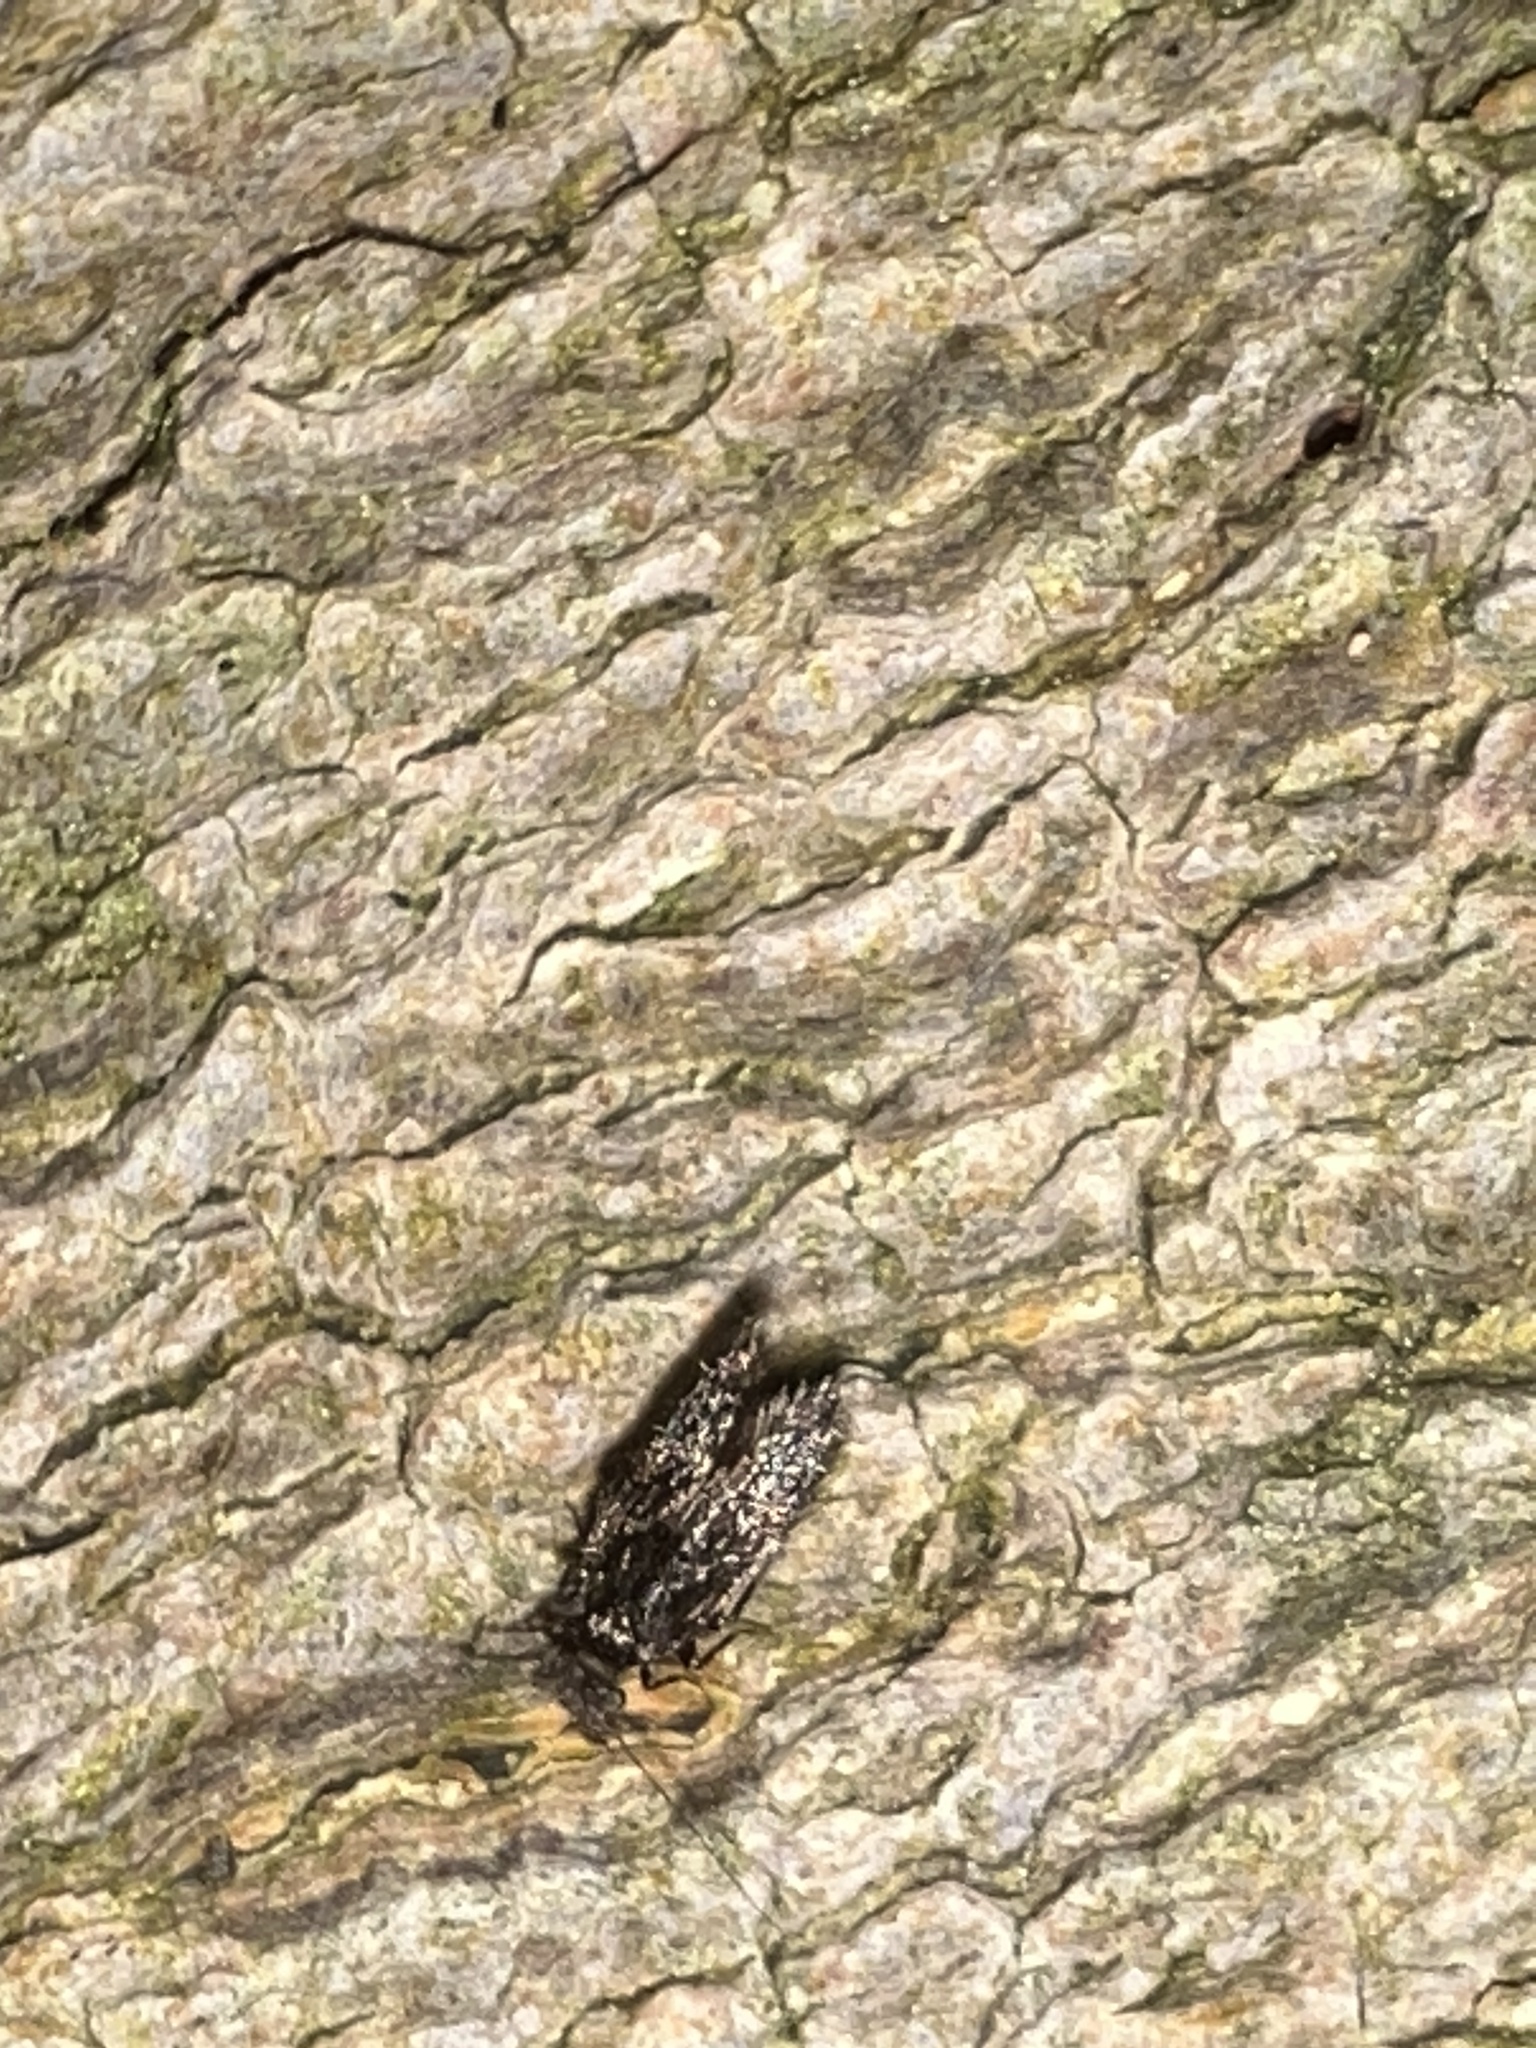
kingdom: Animalia
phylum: Arthropoda
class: Insecta
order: Psocodea
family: Lepidopsocidae
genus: Echmepteryx
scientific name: Echmepteryx hageni
